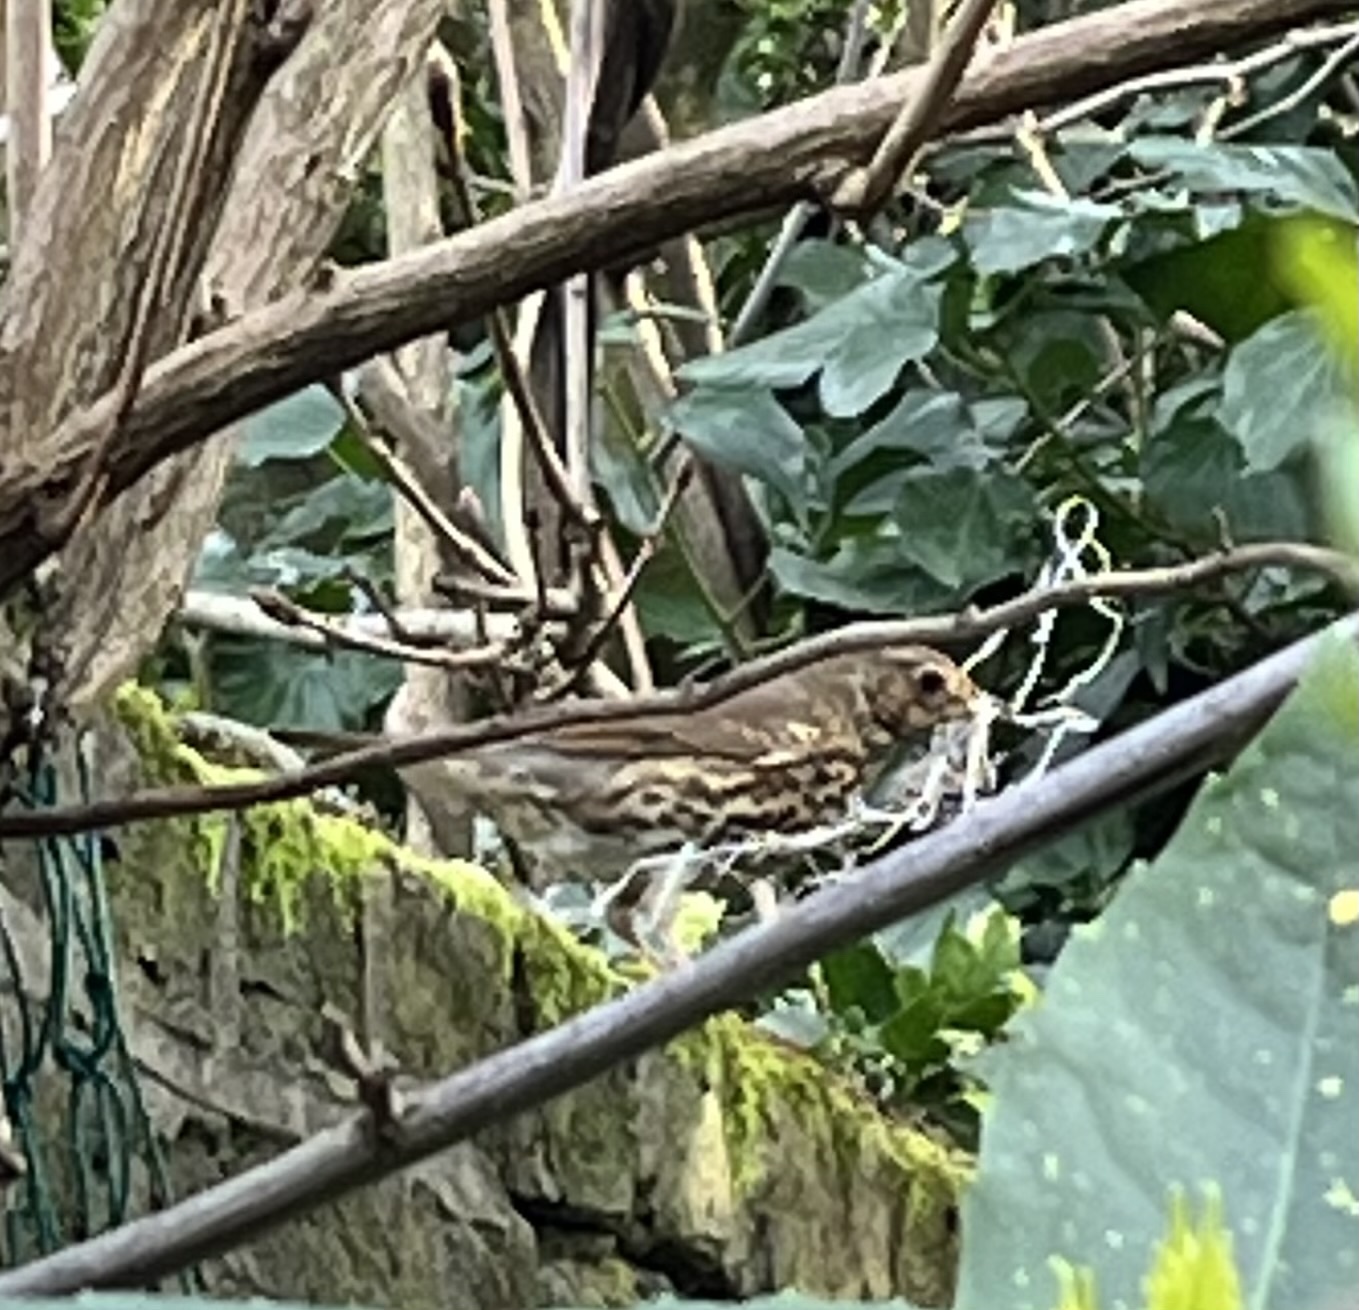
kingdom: Animalia
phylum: Chordata
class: Aves
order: Passeriformes
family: Turdidae
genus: Turdus
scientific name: Turdus philomelos
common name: Song thrush
